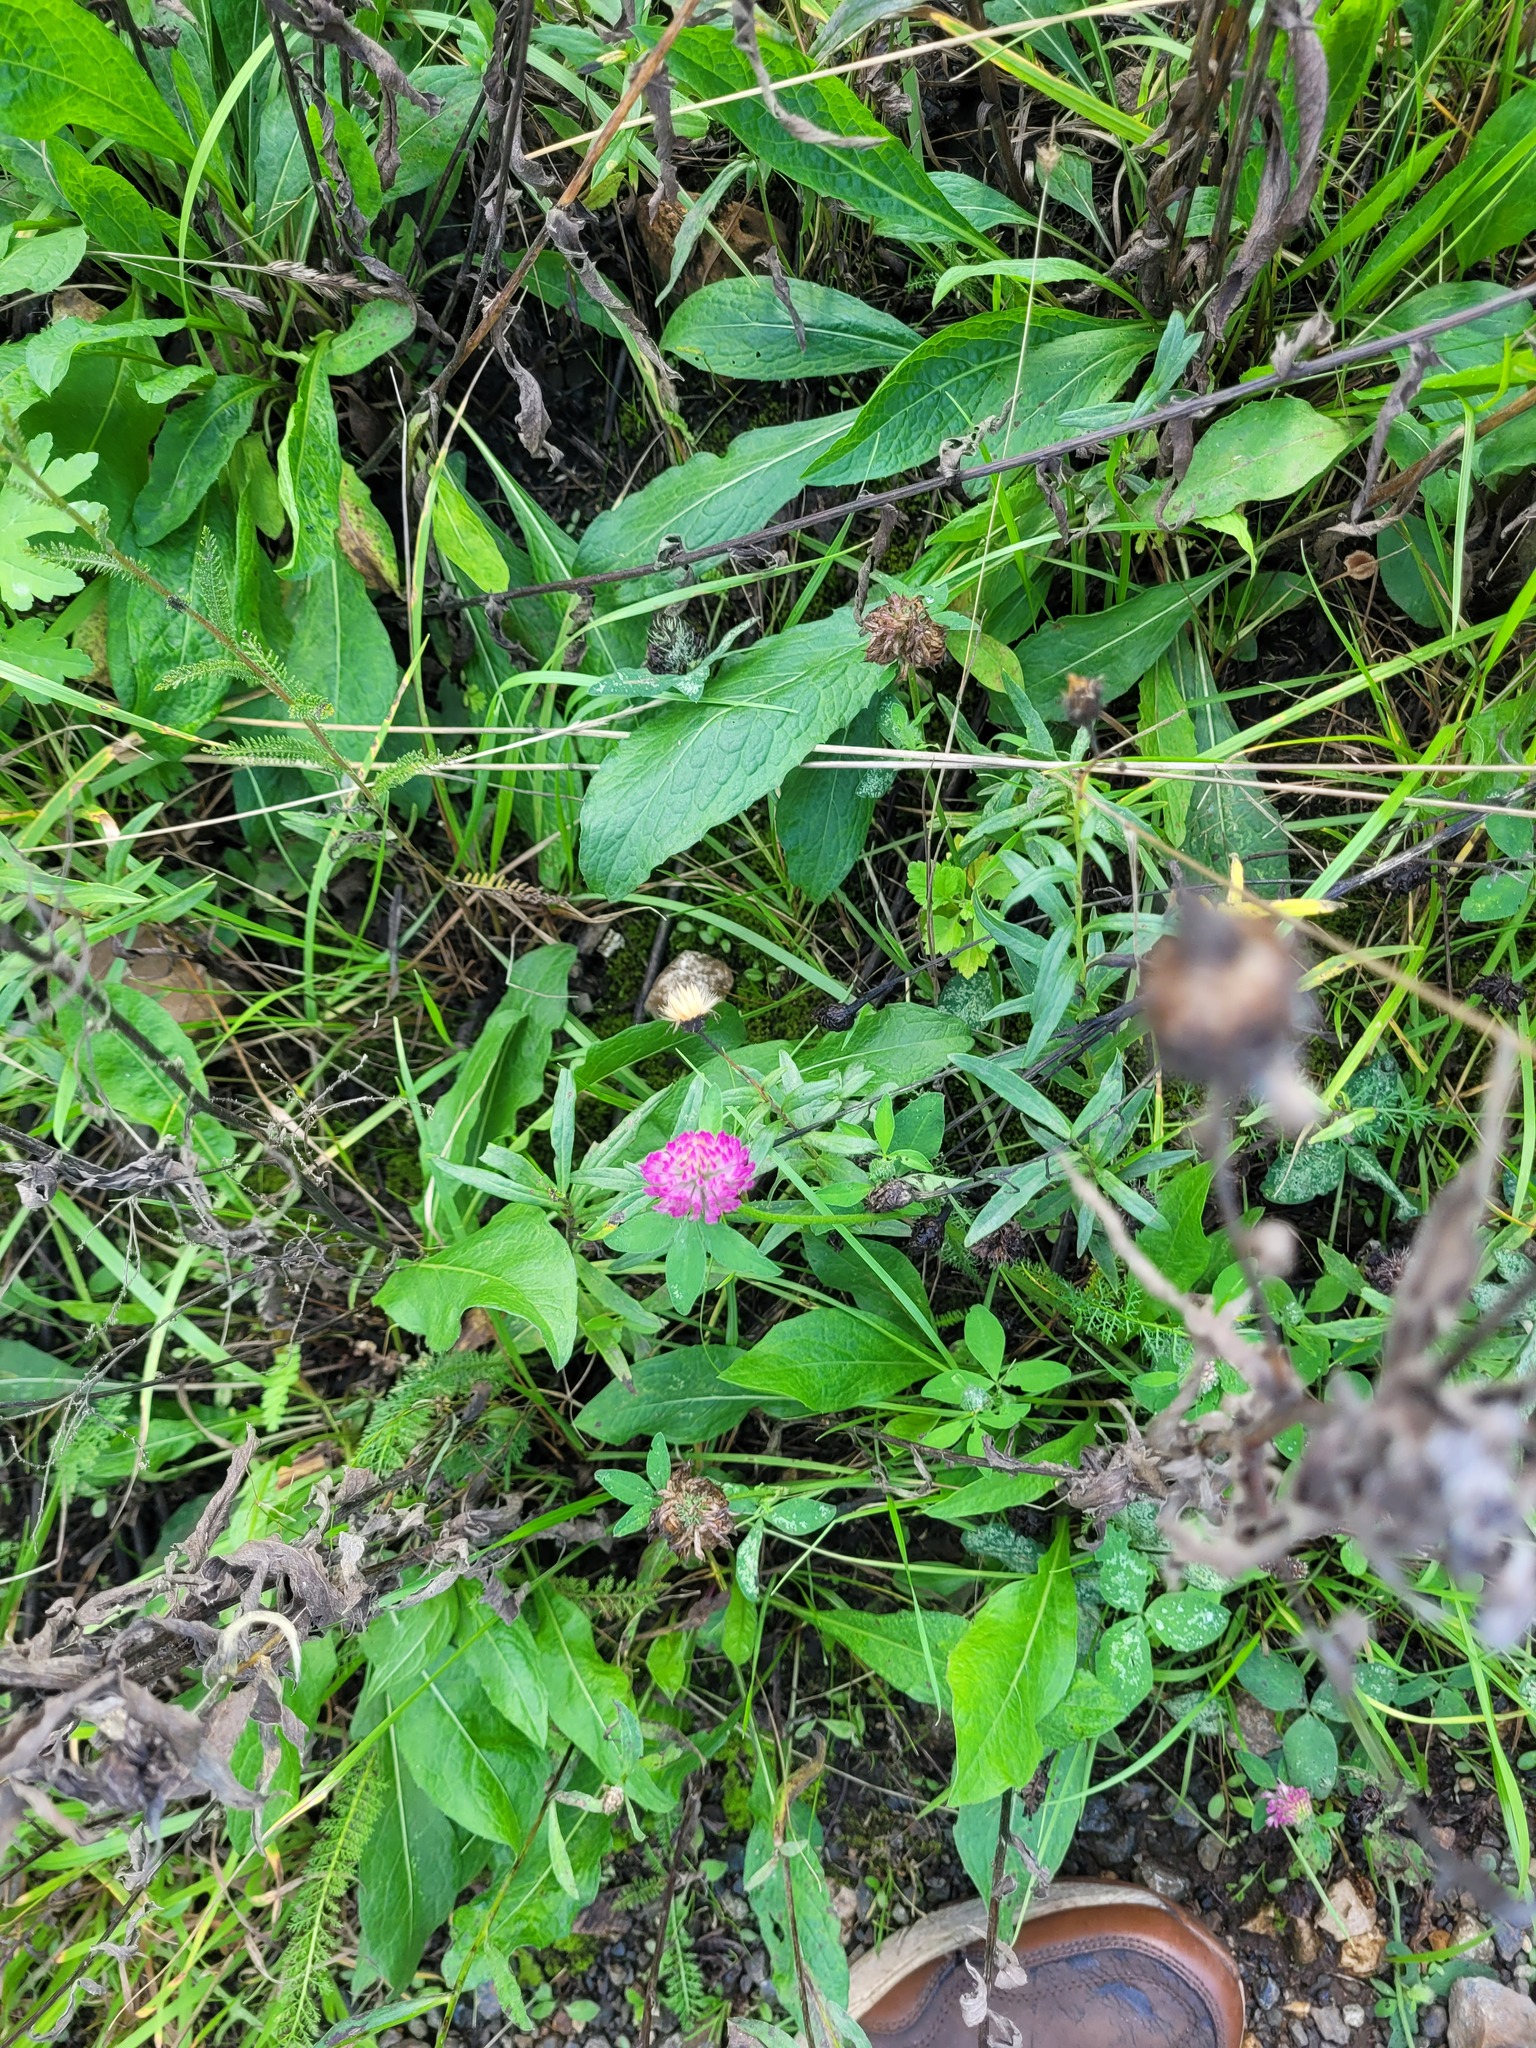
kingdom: Plantae
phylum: Tracheophyta
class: Magnoliopsida
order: Fabales
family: Fabaceae
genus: Trifolium
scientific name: Trifolium pratense
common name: Red clover
